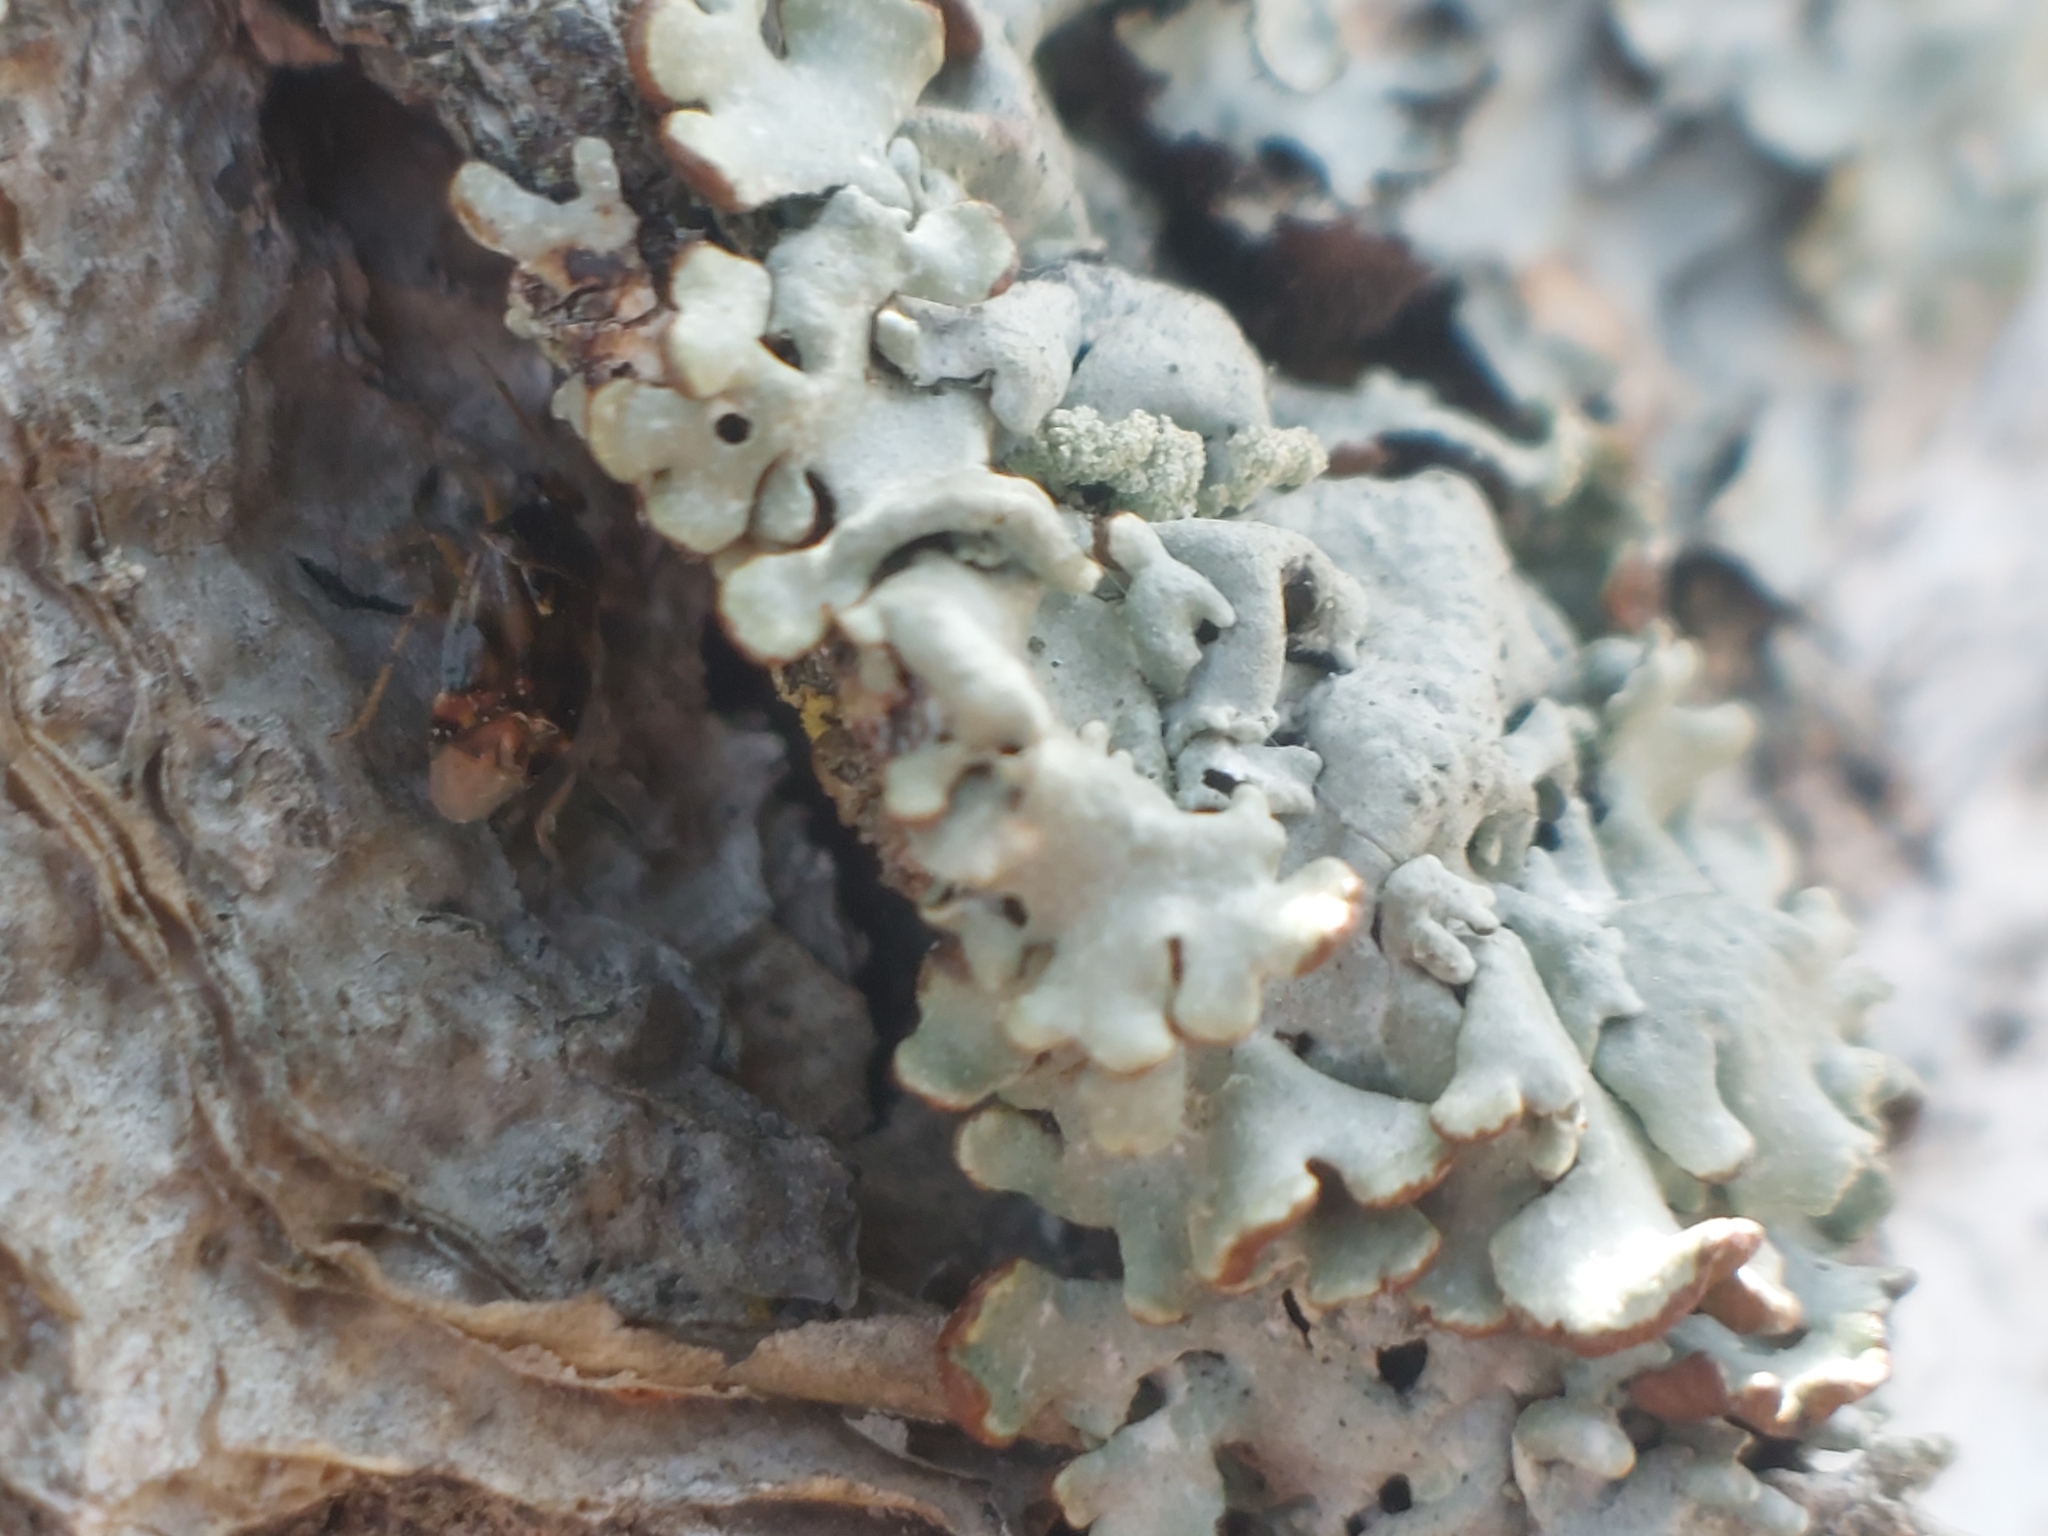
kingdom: Animalia
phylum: Arthropoda
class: Insecta
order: Hemiptera
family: Miridae
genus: Deraeocoris
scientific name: Deraeocoris lutescens
